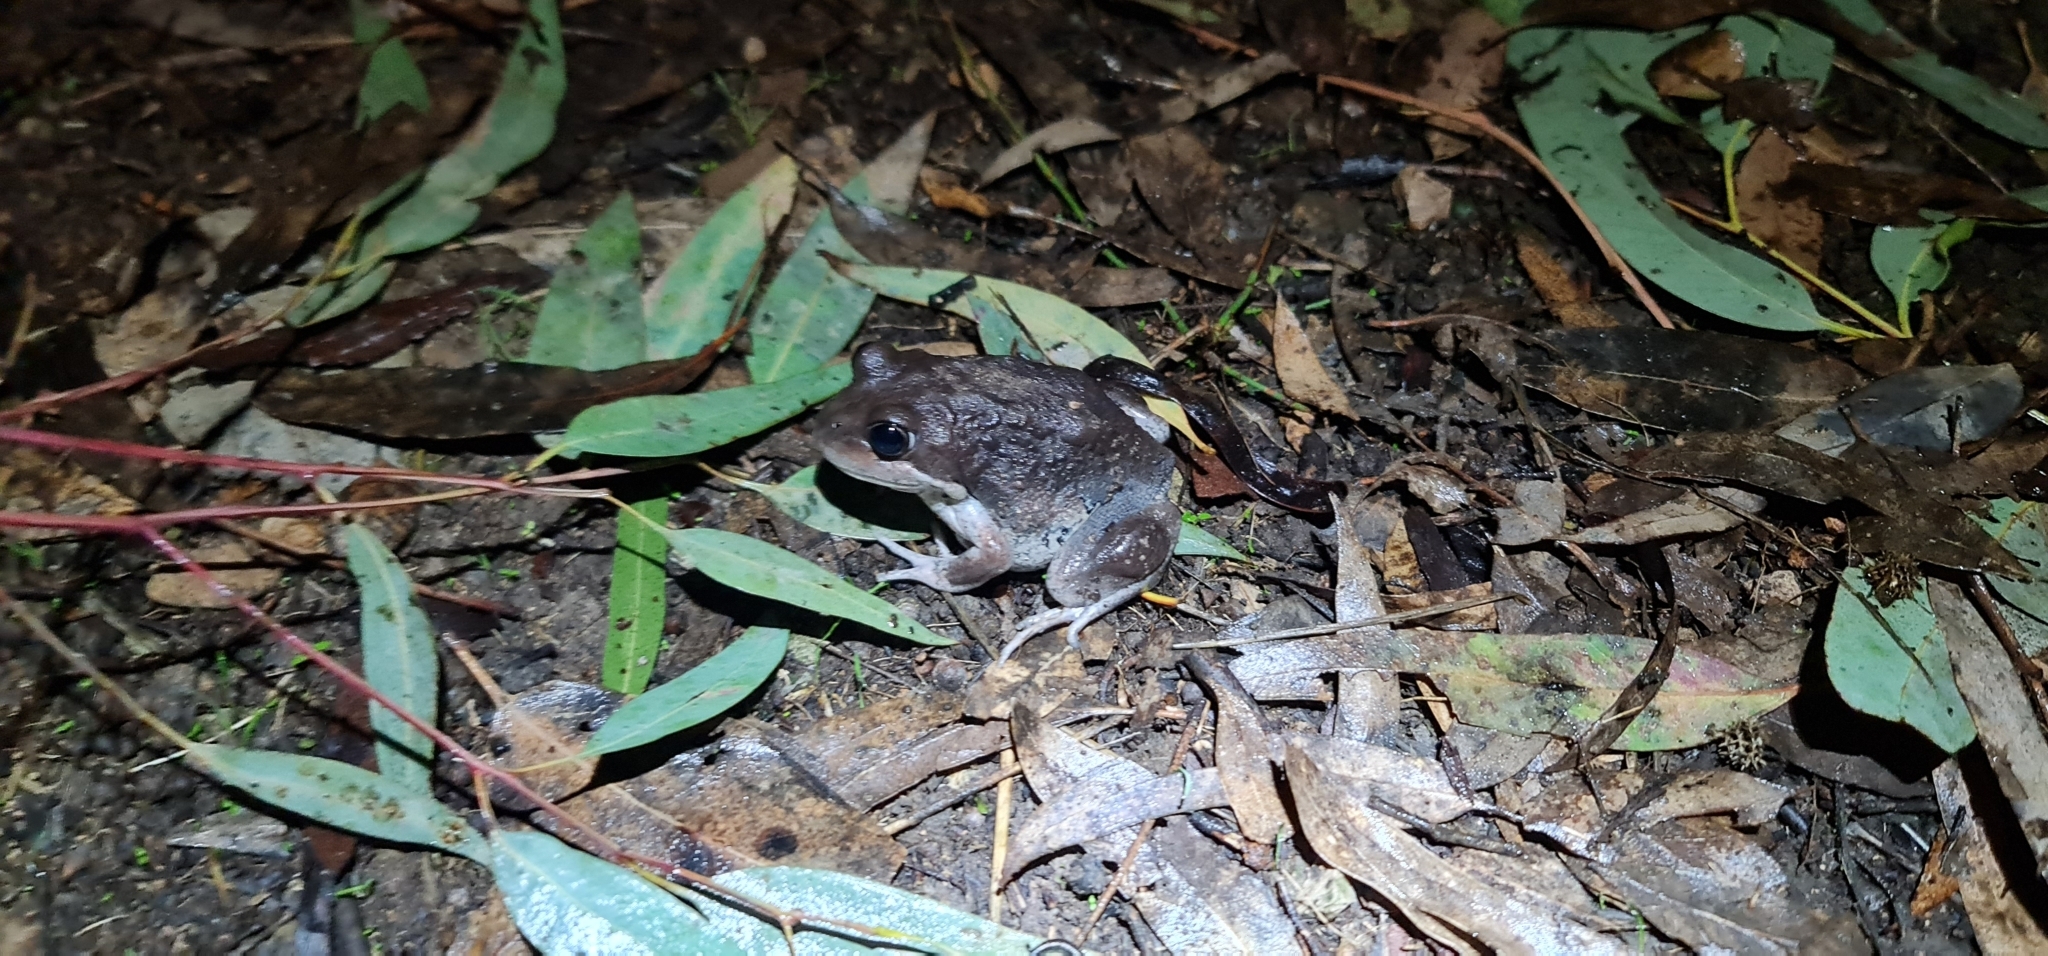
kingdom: Animalia
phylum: Chordata
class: Amphibia
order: Anura
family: Limnodynastidae
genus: Limnodynastes
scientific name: Limnodynastes dumerilii
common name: Banjo frog
